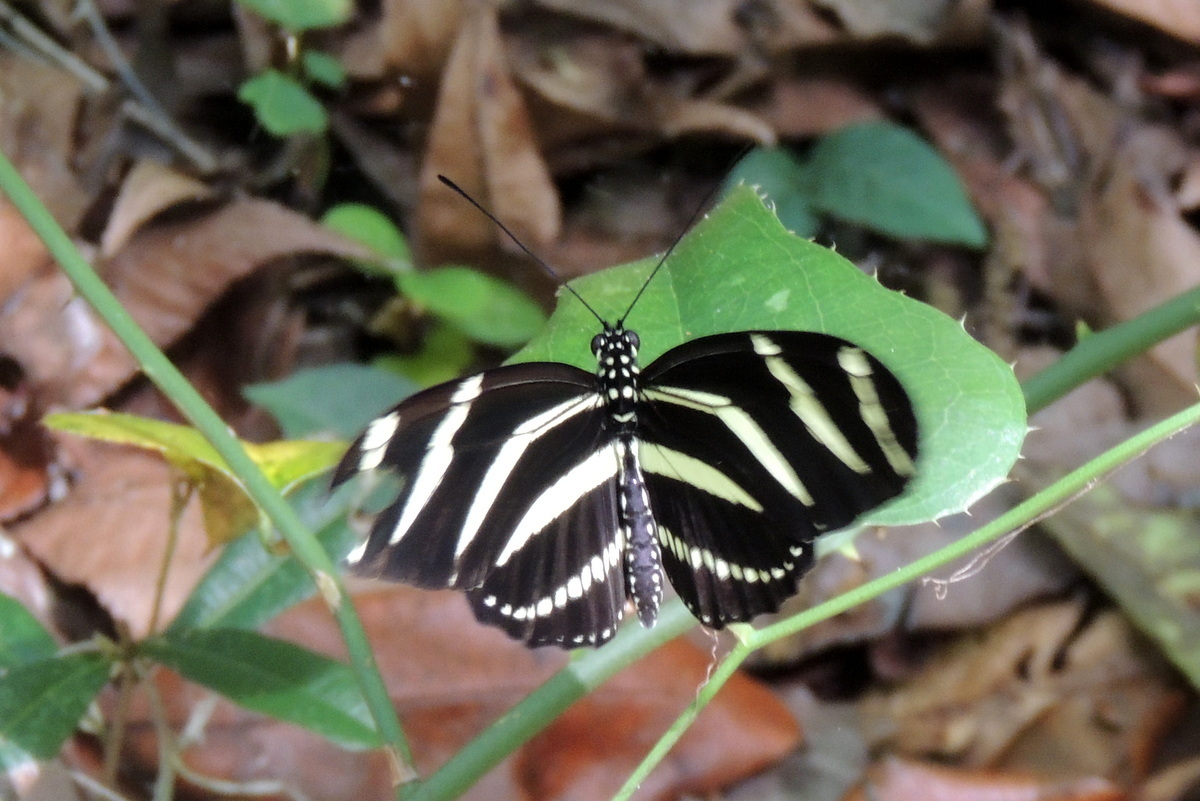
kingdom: Animalia
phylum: Arthropoda
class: Insecta
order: Lepidoptera
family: Nymphalidae
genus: Heliconius
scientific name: Heliconius charithonia
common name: Zebra long wing
